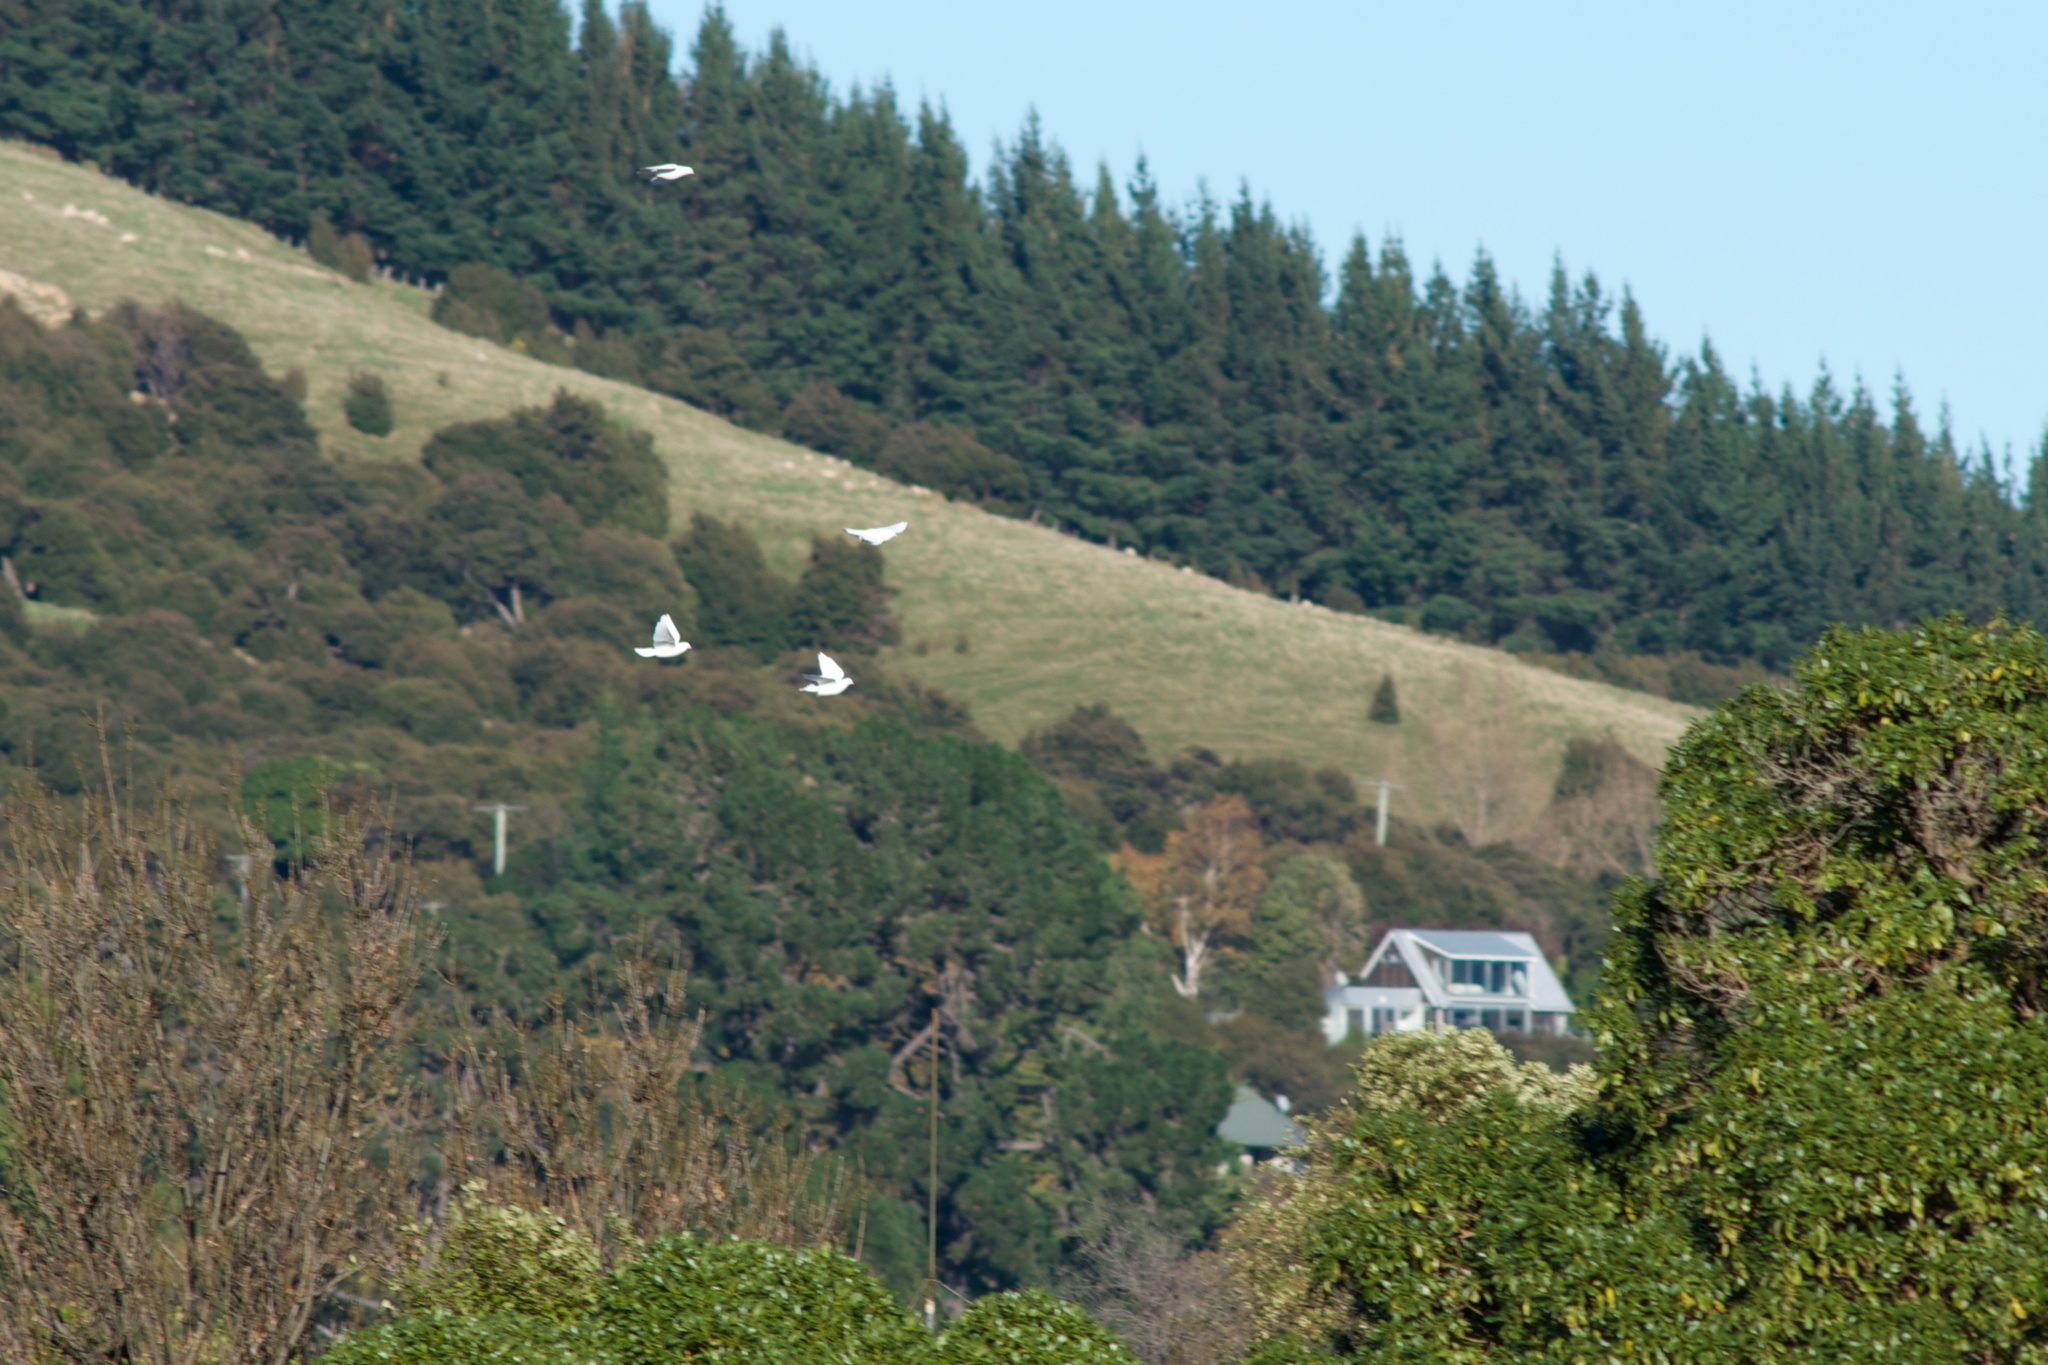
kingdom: Animalia
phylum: Chordata
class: Aves
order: Columbiformes
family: Columbidae
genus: Columba
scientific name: Columba livia
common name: Rock pigeon
